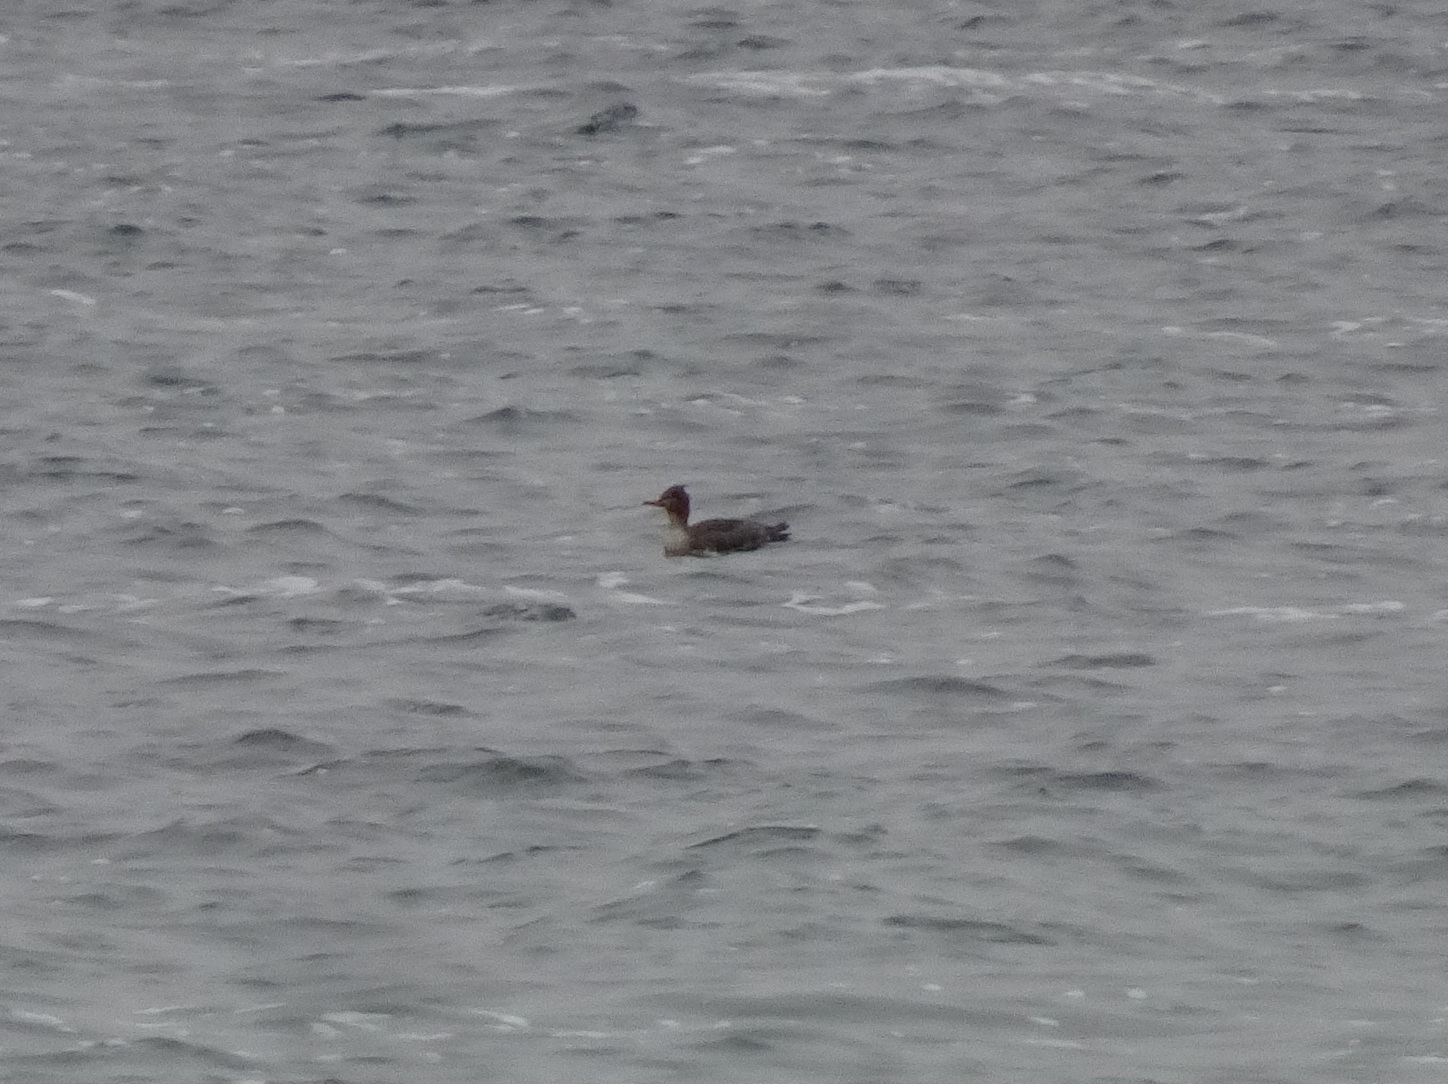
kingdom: Animalia
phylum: Chordata
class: Aves
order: Anseriformes
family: Anatidae
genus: Mergus
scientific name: Mergus serrator
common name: Red-breasted merganser
